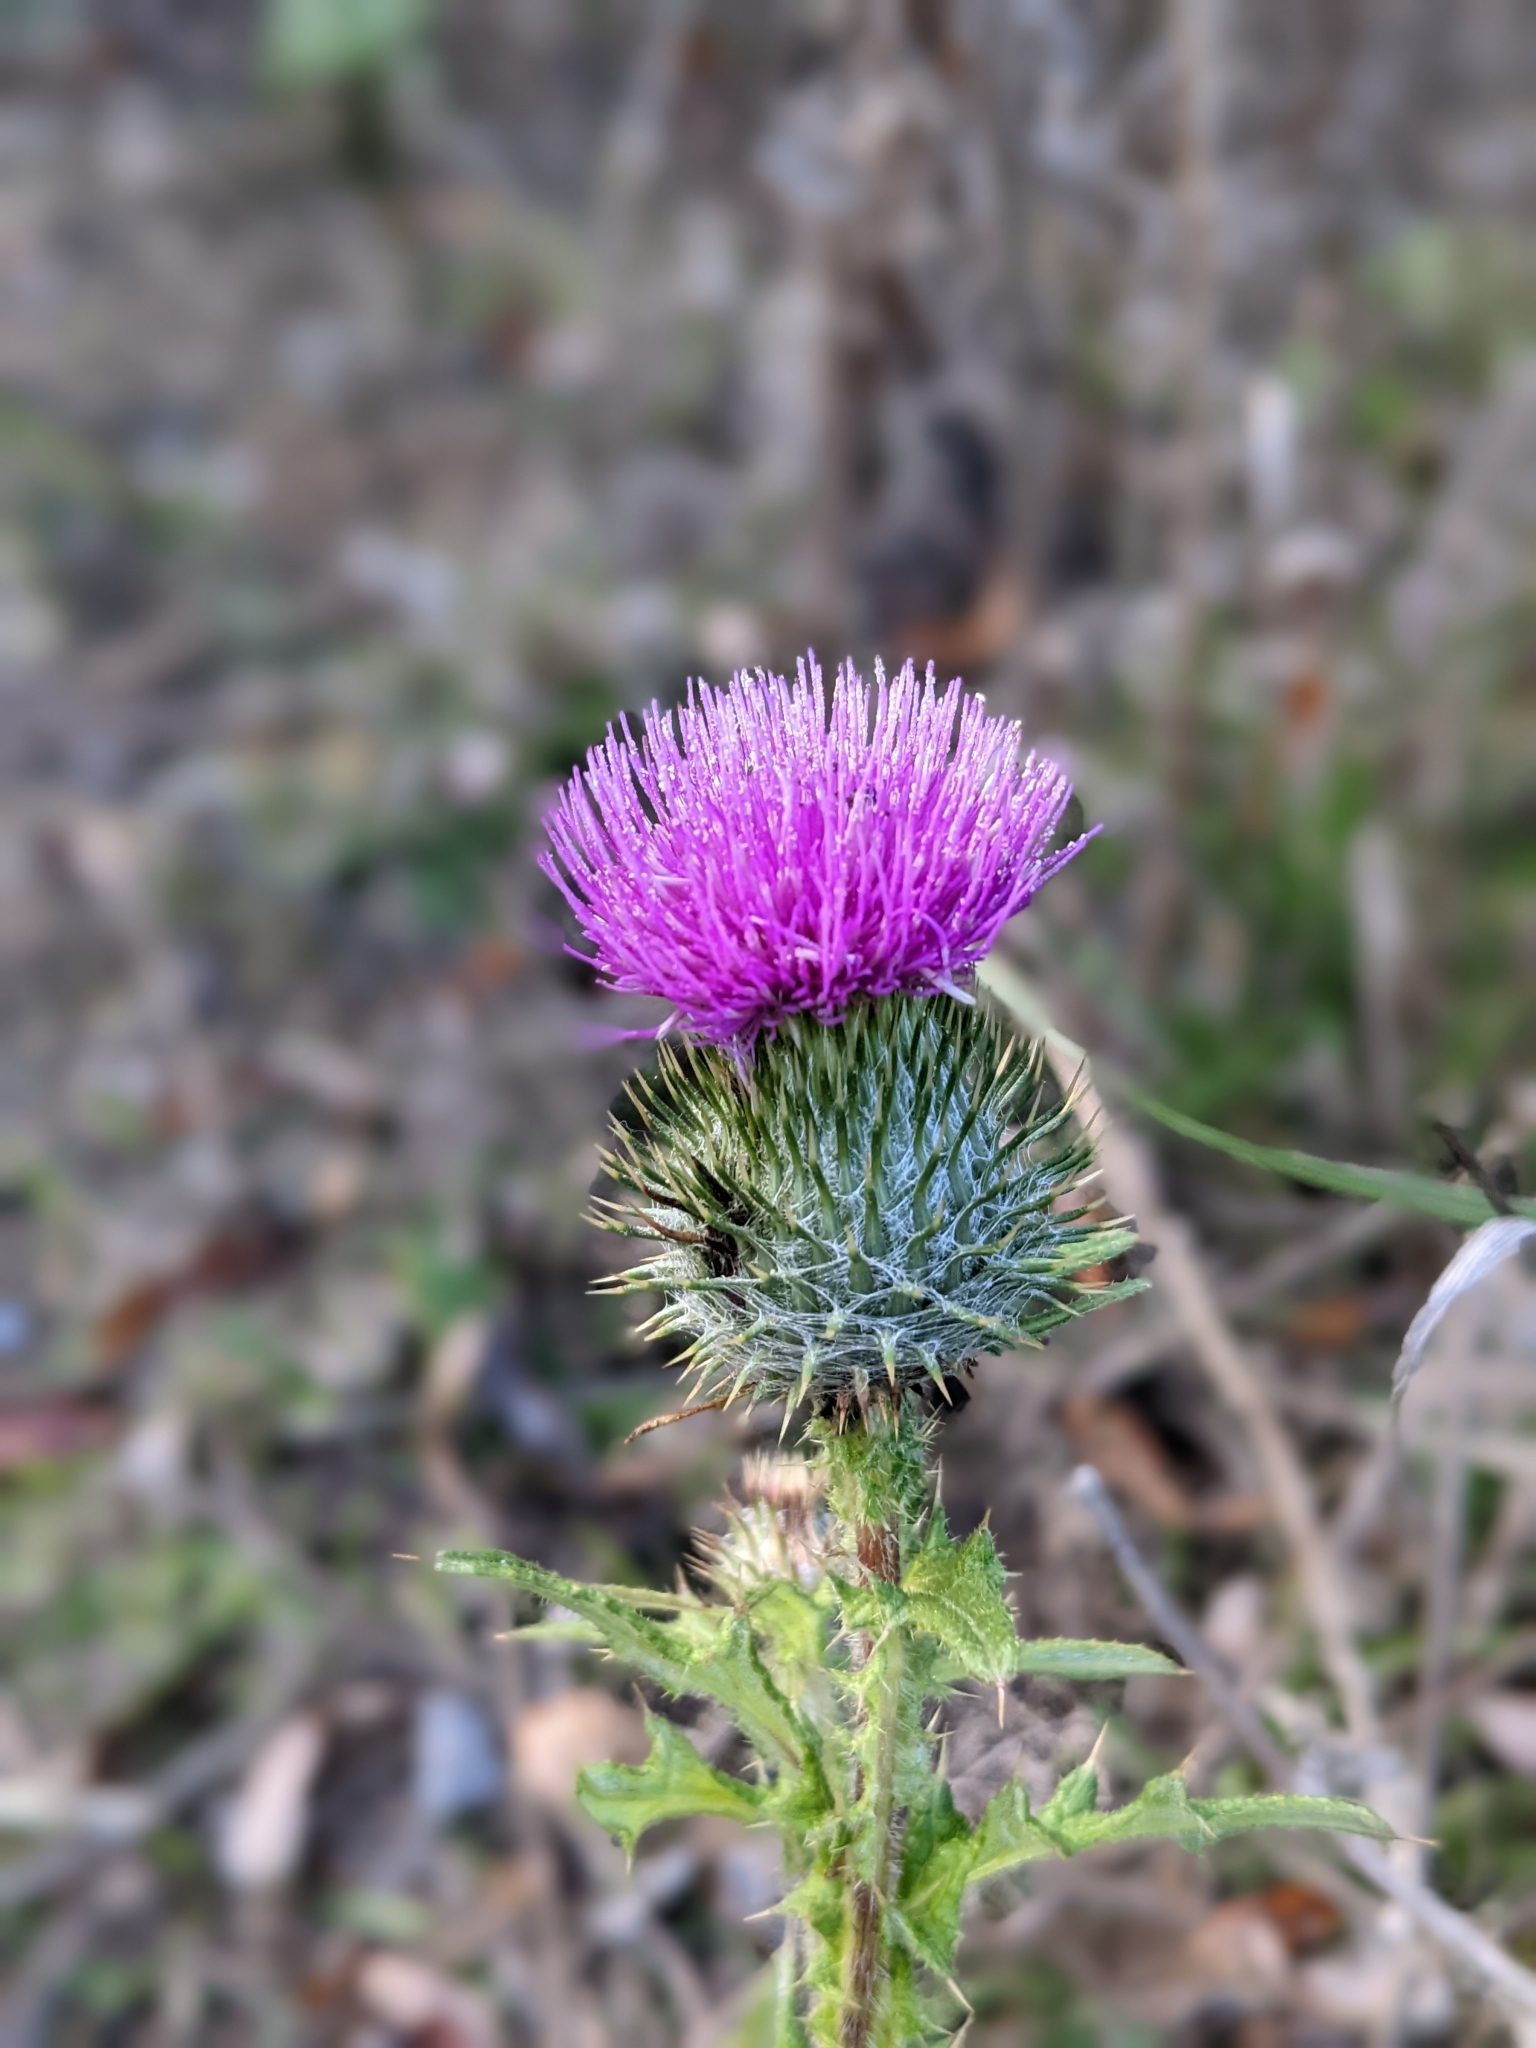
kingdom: Plantae
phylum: Tracheophyta
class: Magnoliopsida
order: Asterales
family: Asteraceae
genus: Cirsium
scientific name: Cirsium vulgare
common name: Bull thistle
